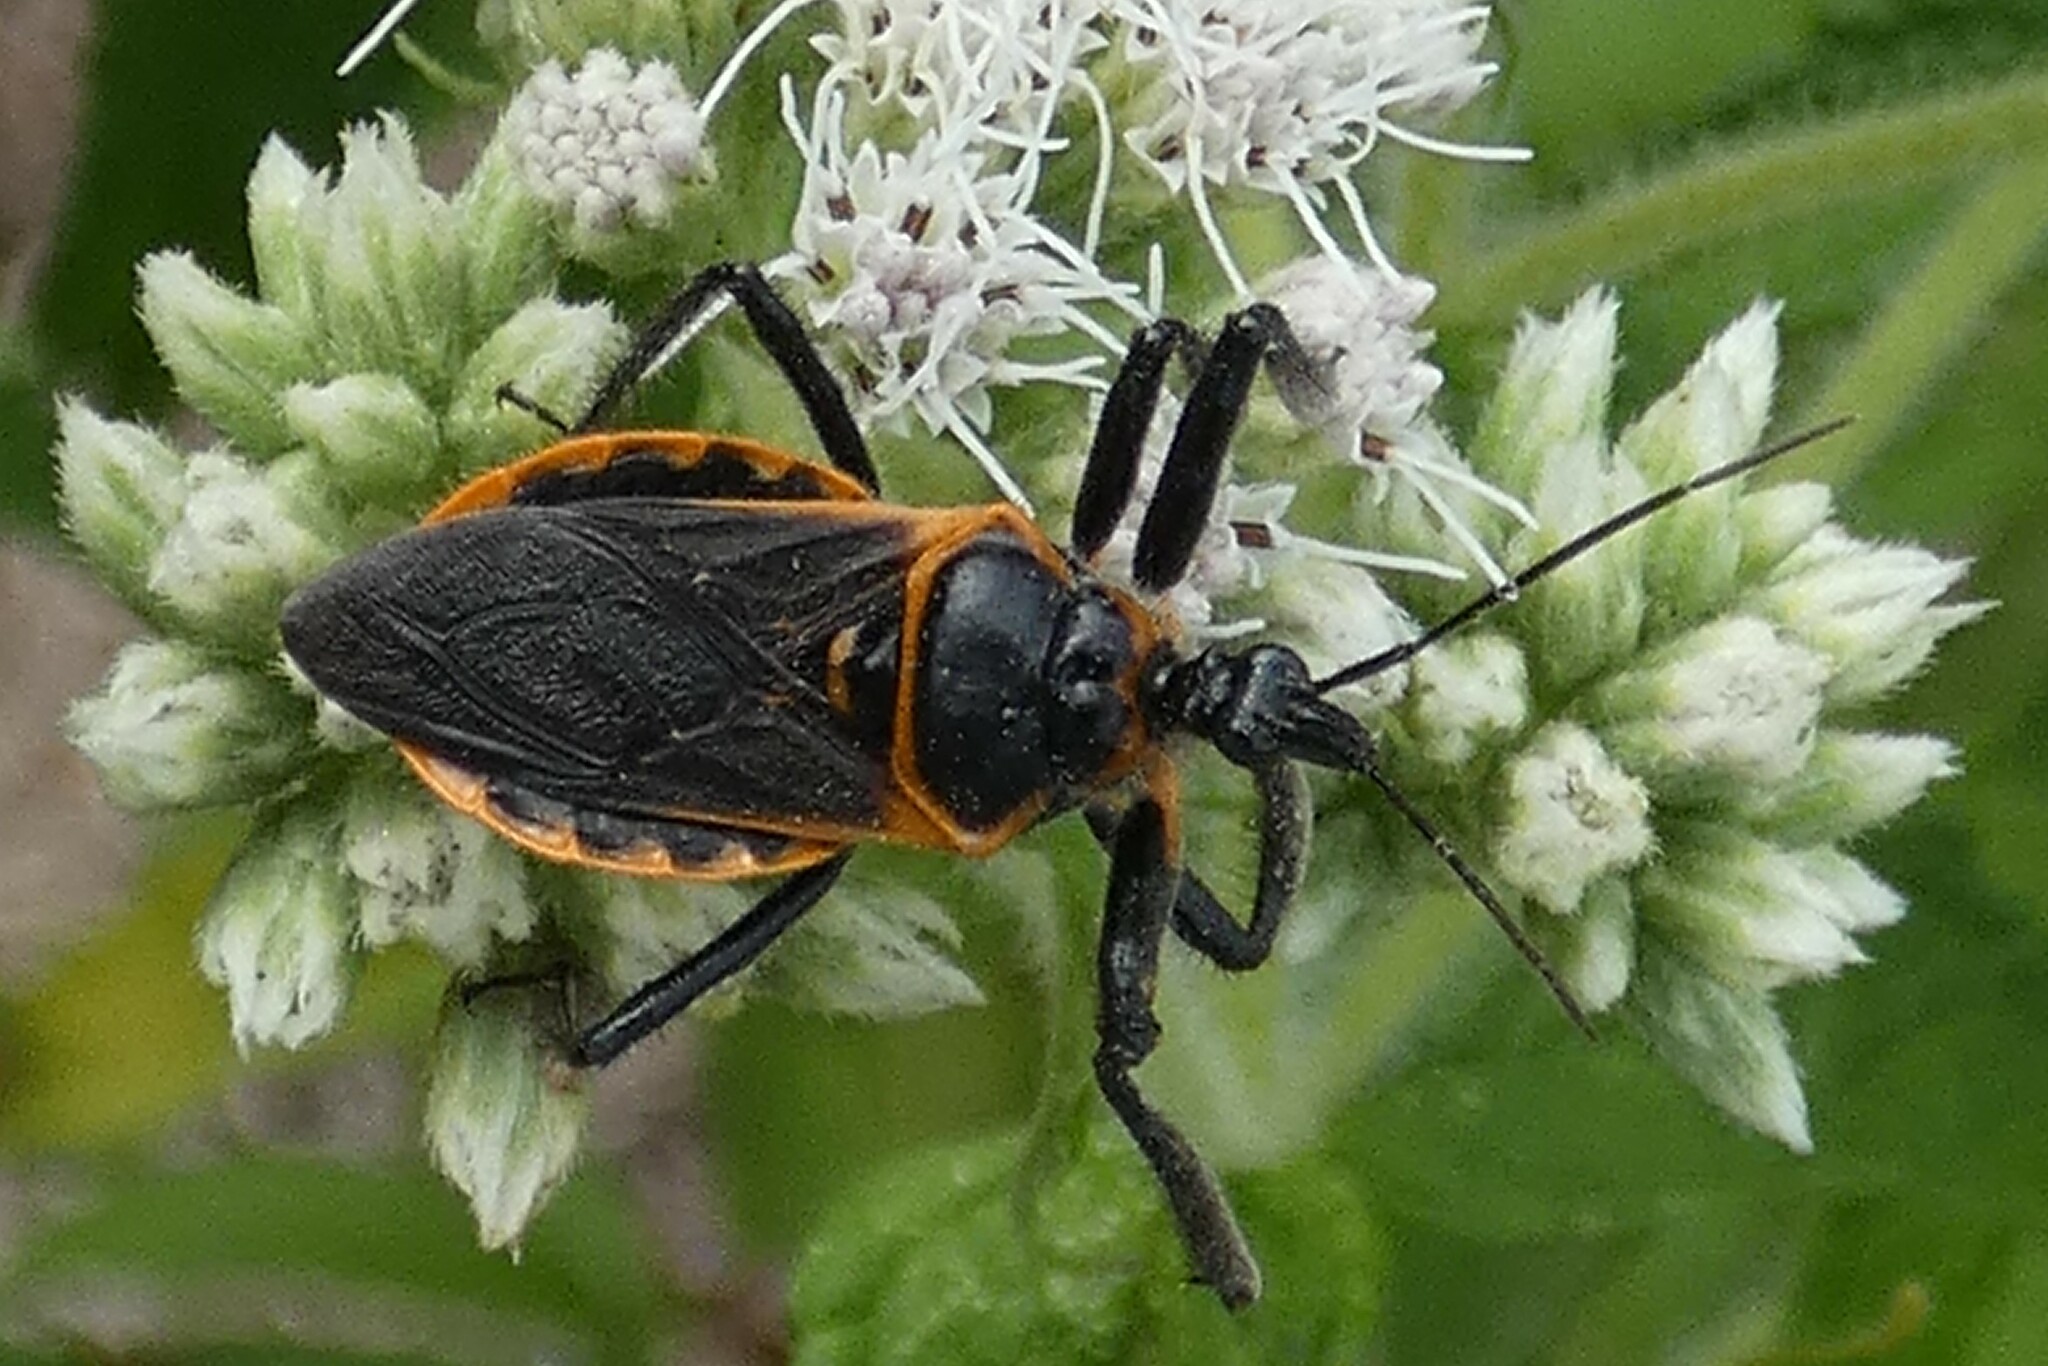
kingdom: Animalia
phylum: Arthropoda
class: Insecta
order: Hemiptera
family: Reduviidae
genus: Apiomerus
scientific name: Apiomerus crassipes
